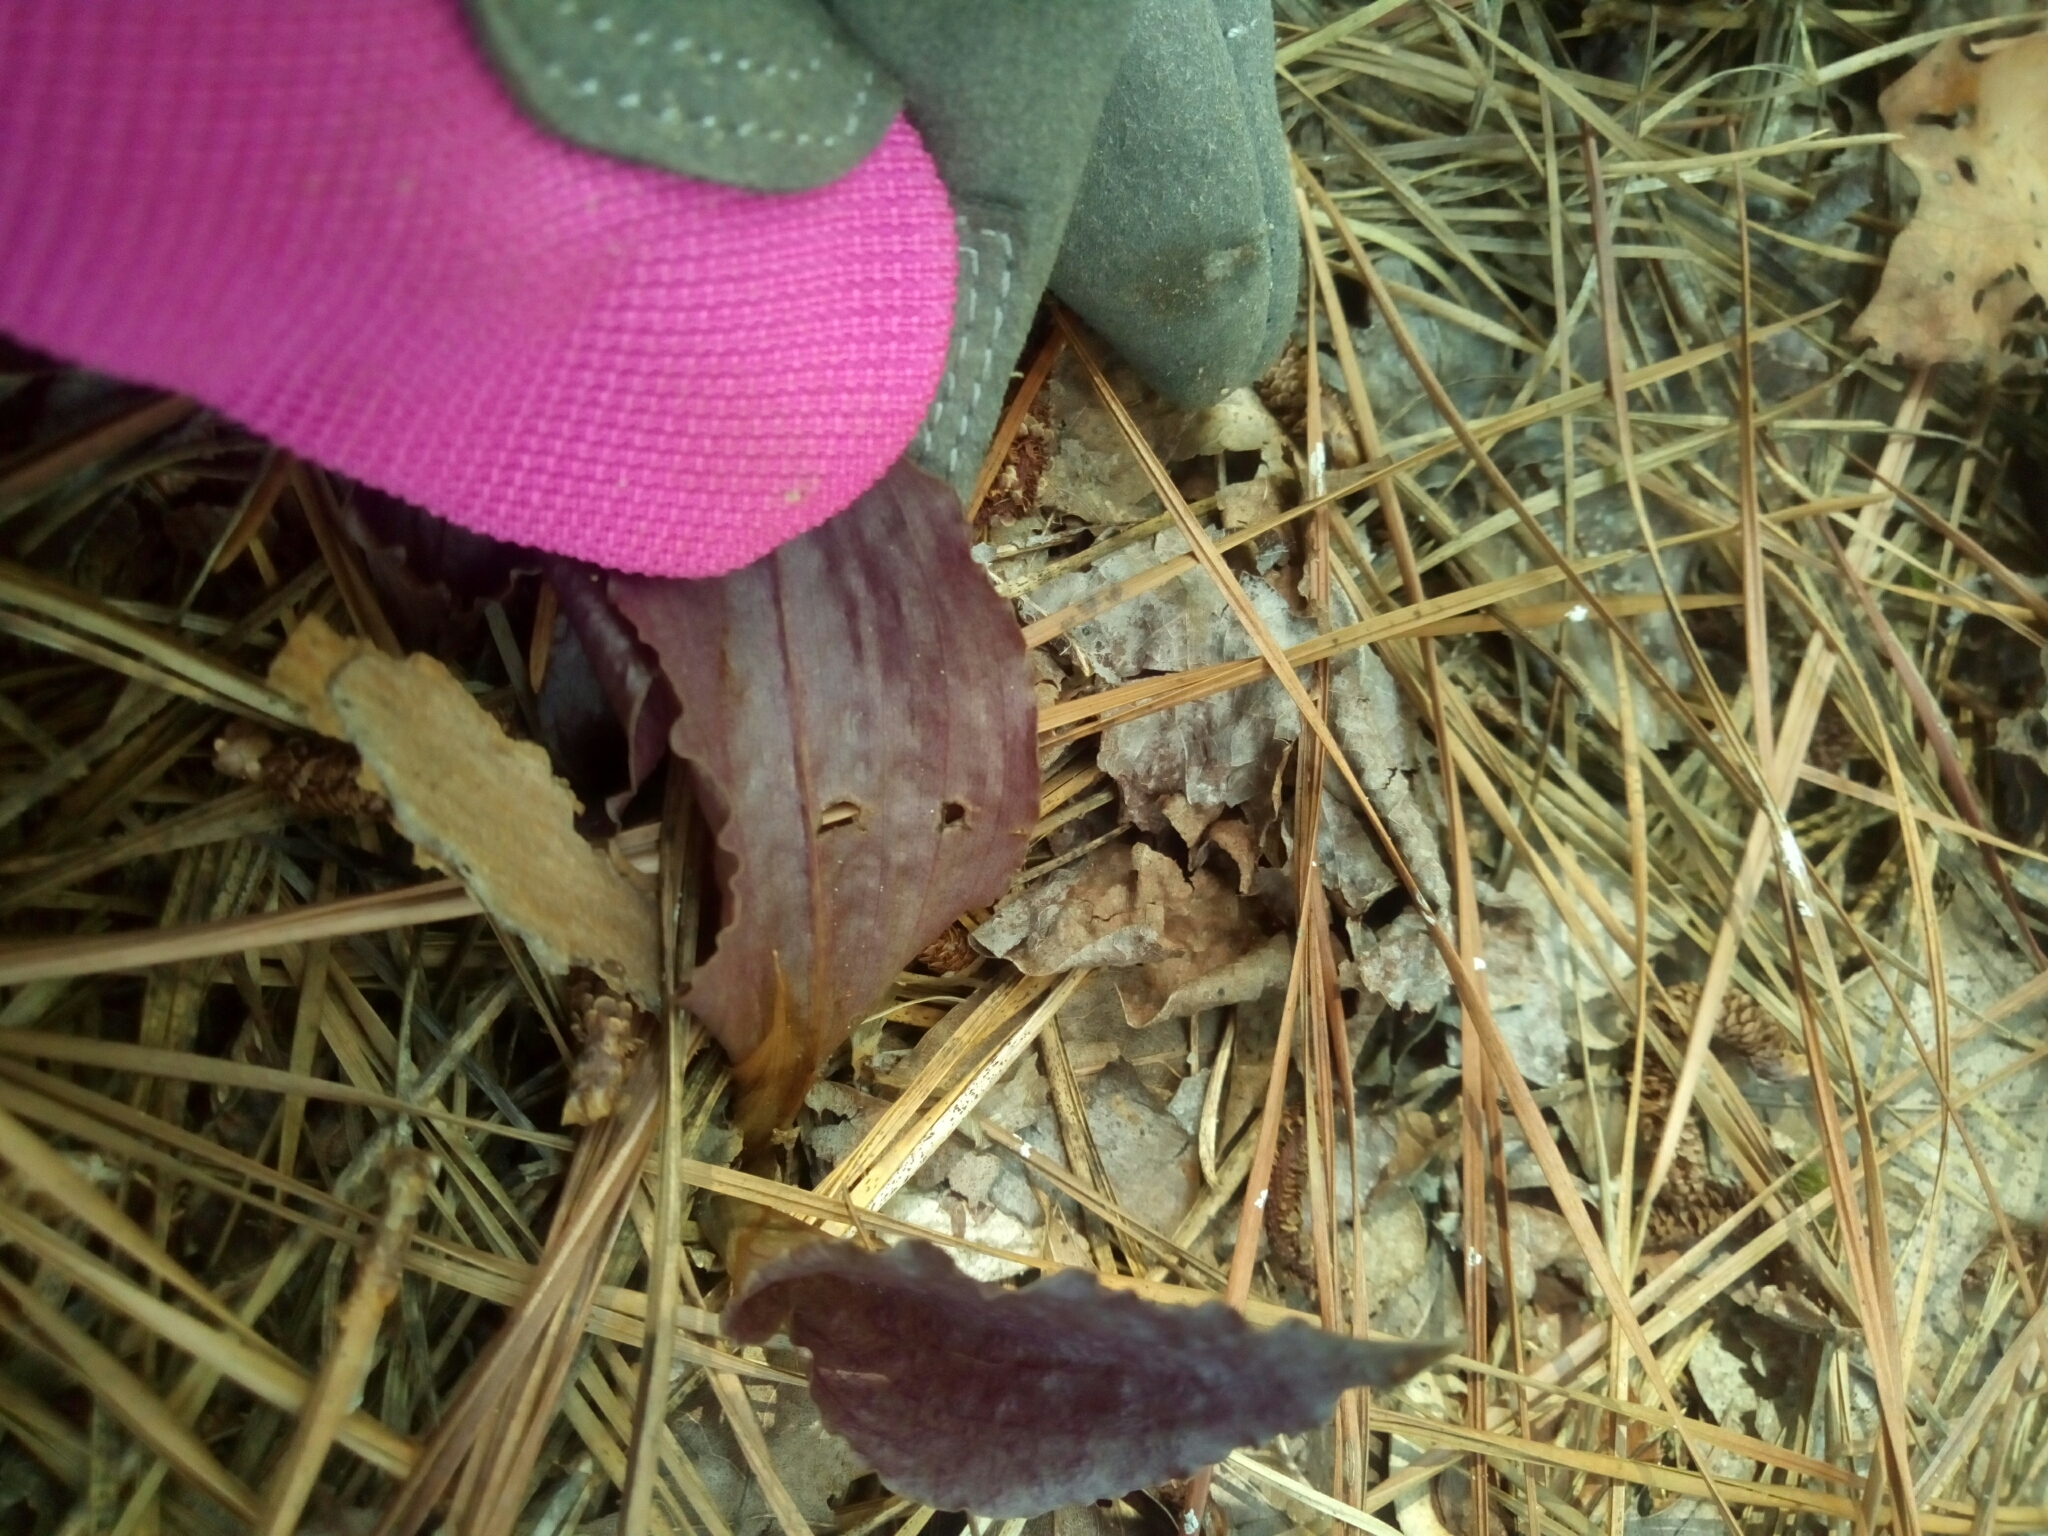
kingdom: Plantae
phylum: Tracheophyta
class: Liliopsida
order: Asparagales
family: Orchidaceae
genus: Tipularia
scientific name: Tipularia discolor
